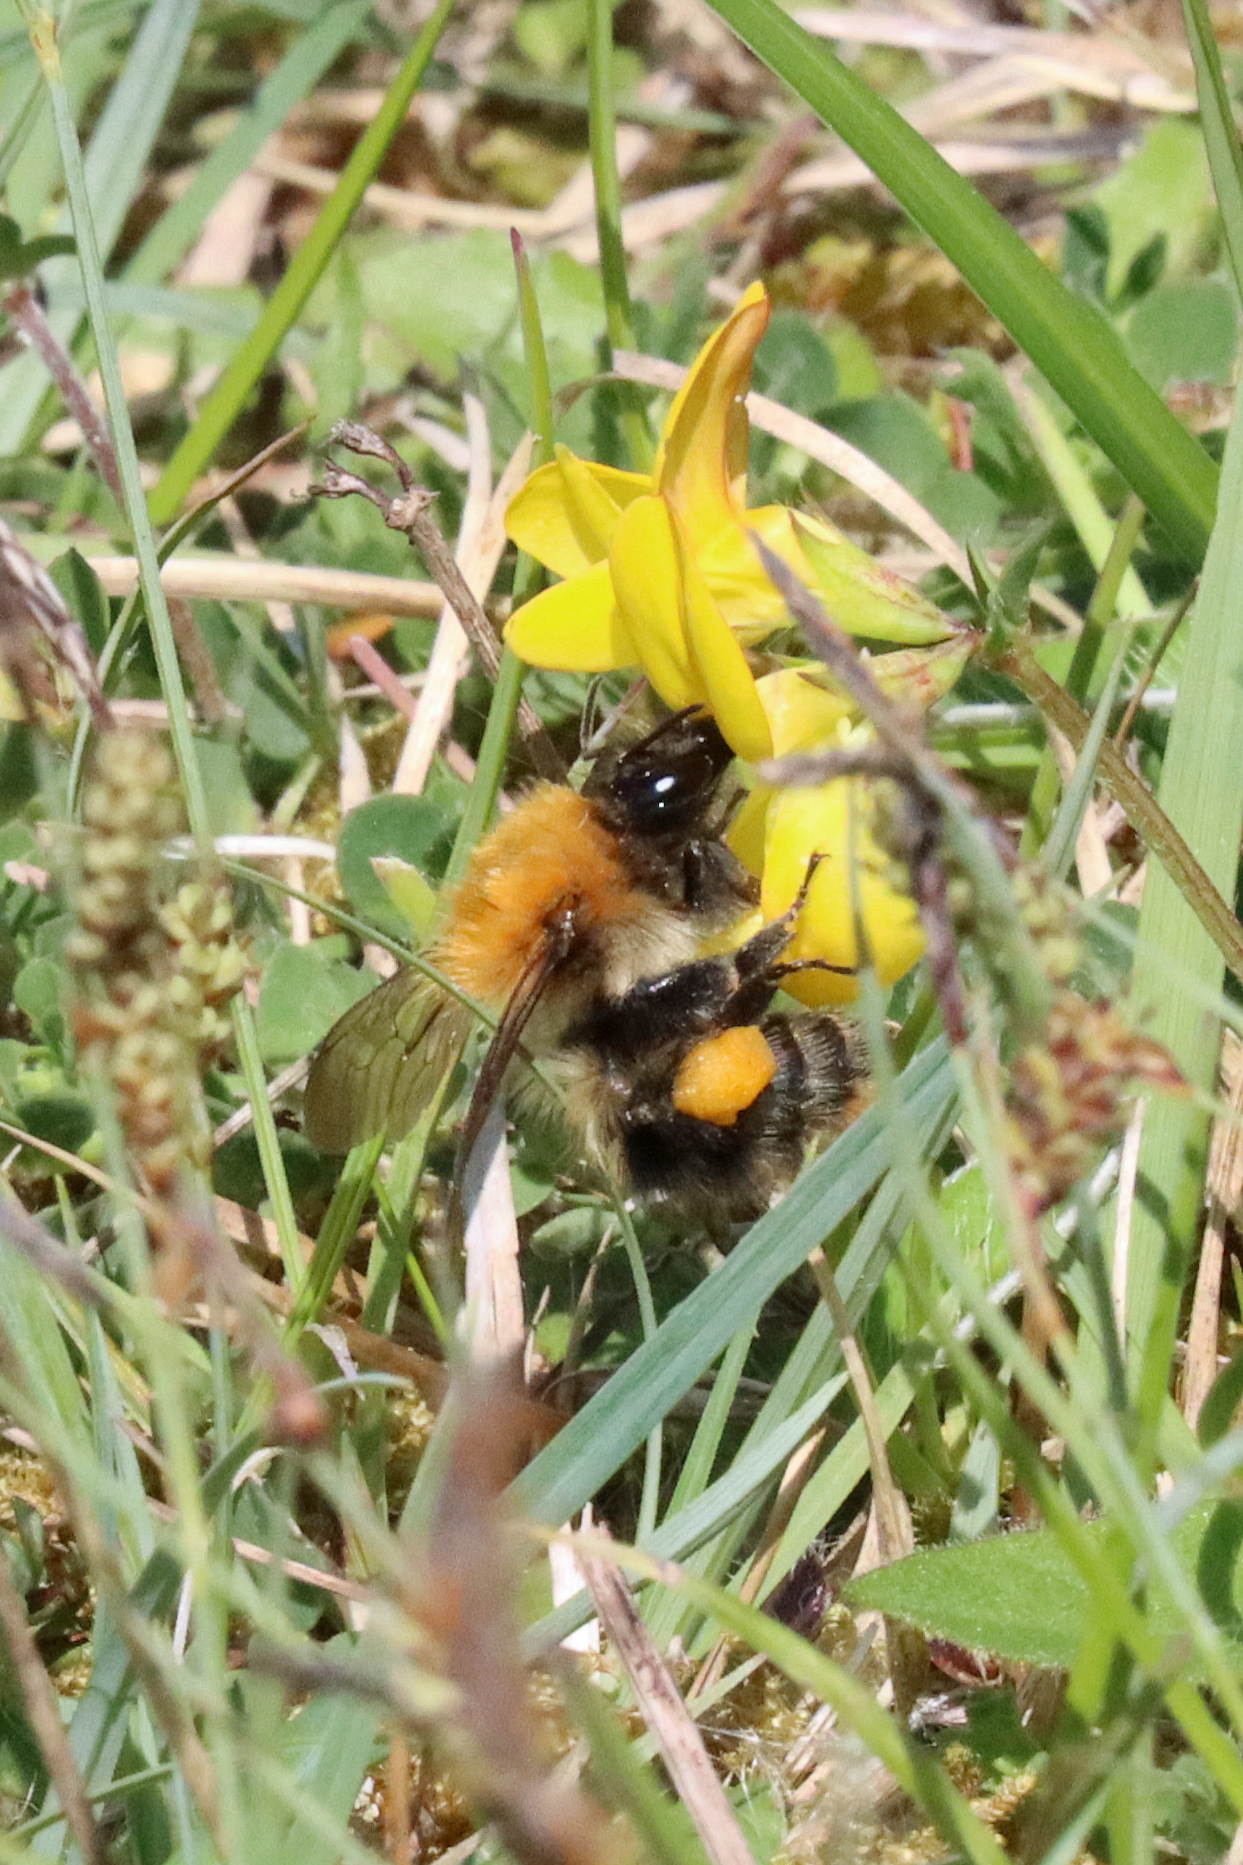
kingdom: Animalia
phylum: Arthropoda
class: Insecta
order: Hymenoptera
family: Apidae
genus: Bombus
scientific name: Bombus pascuorum
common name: Common carder bee
